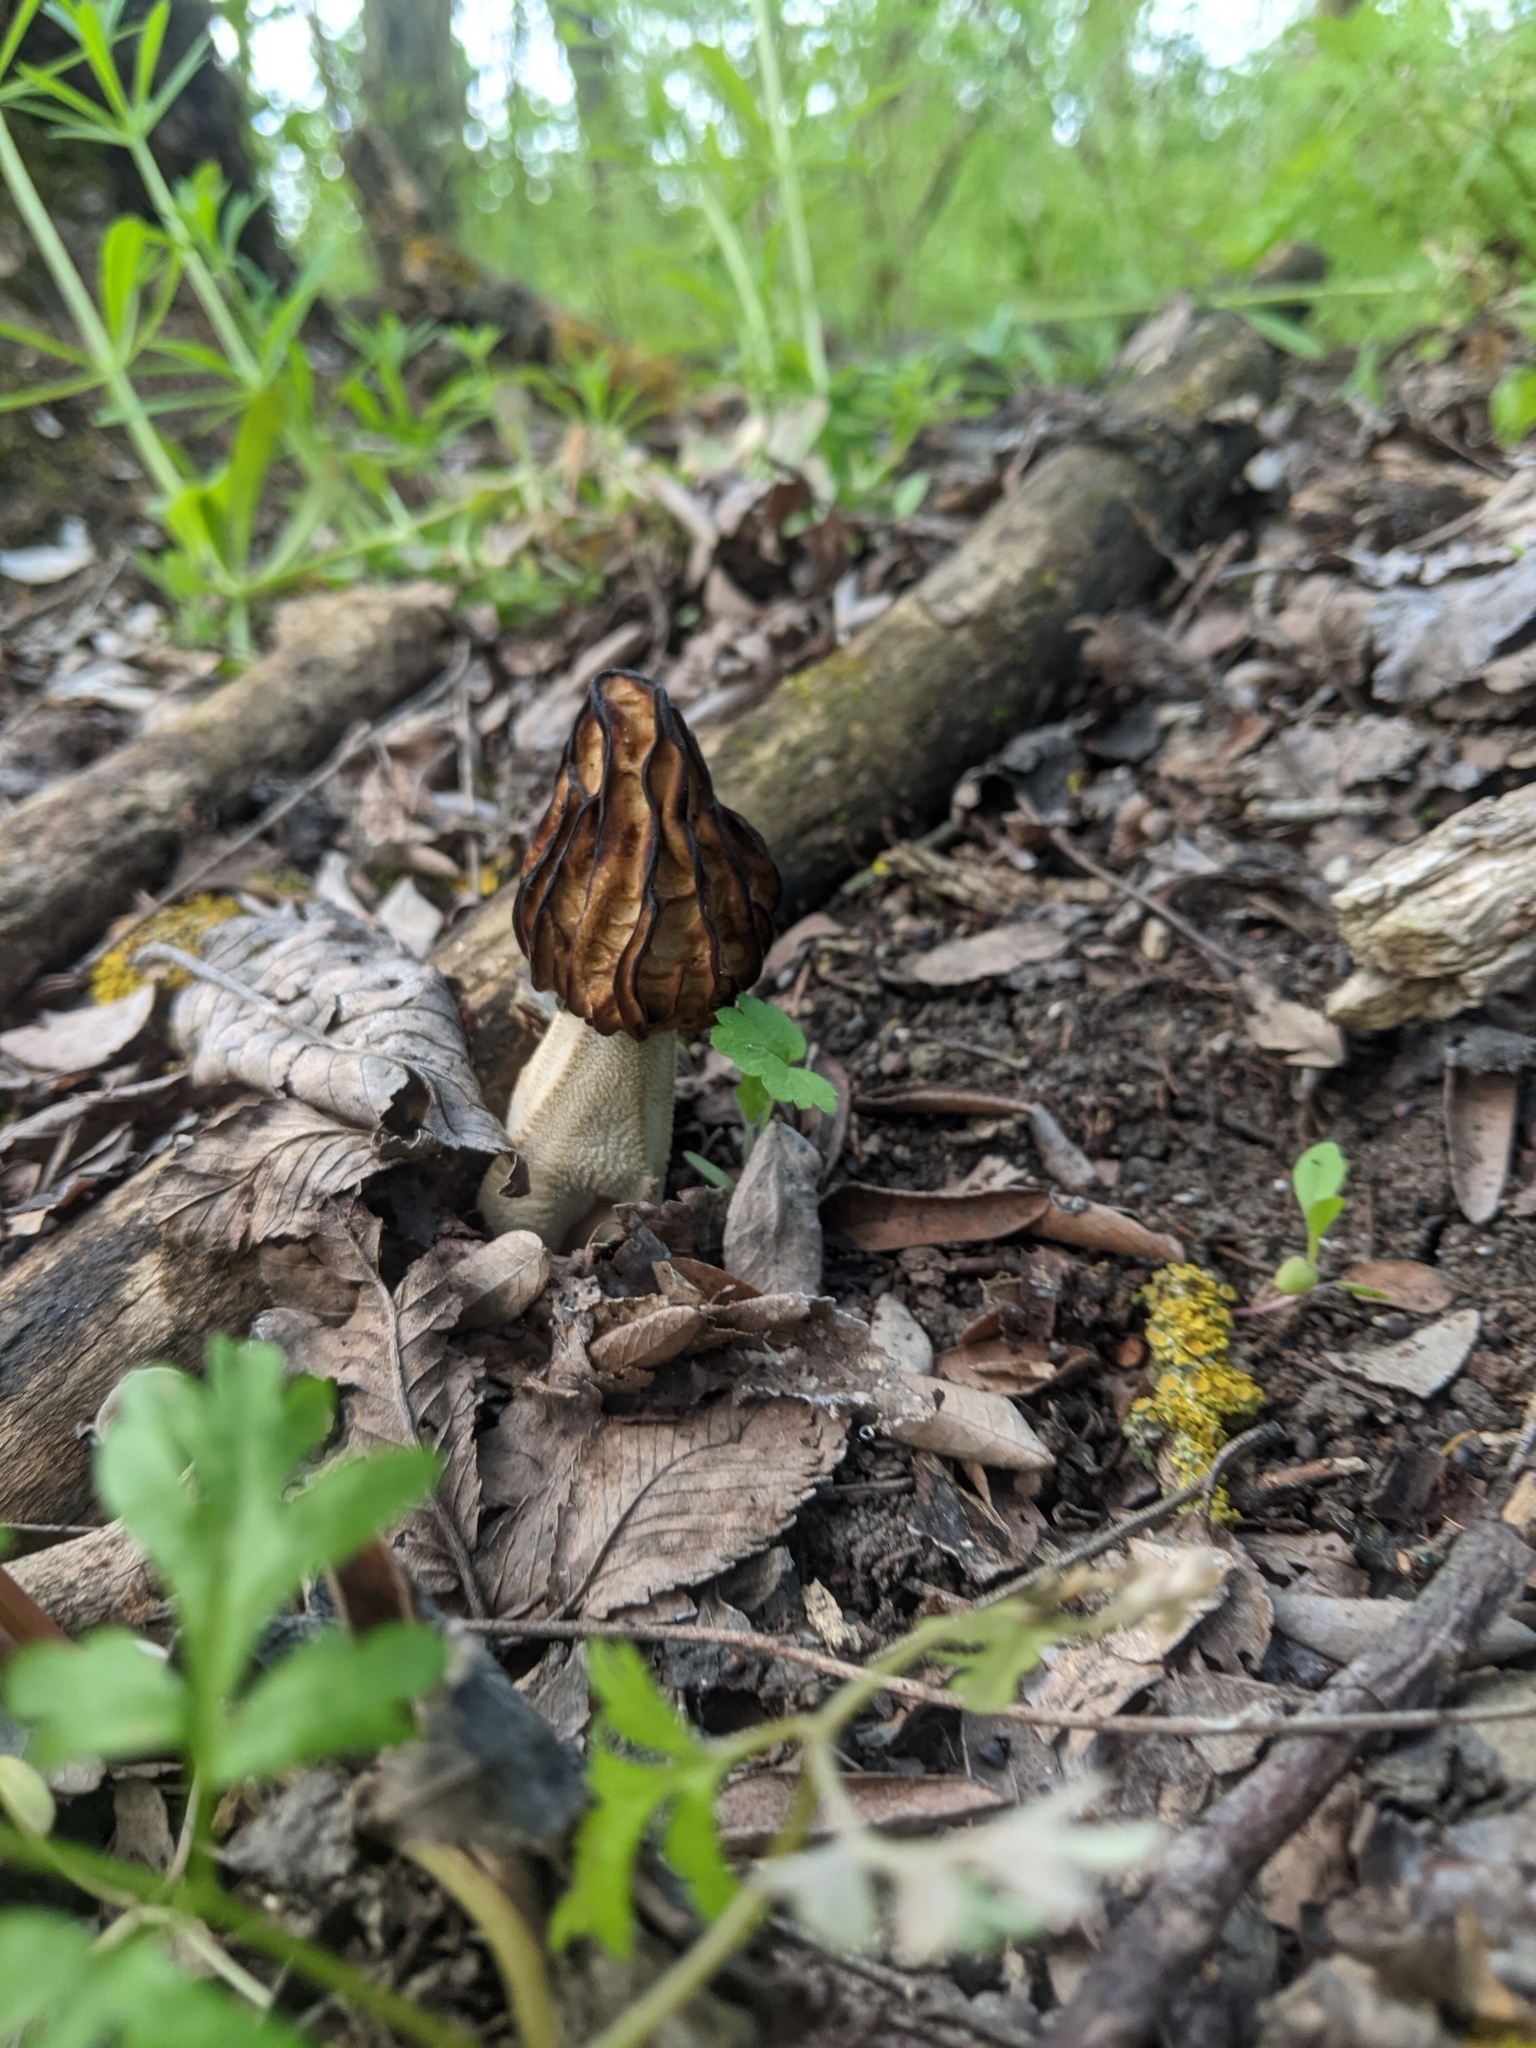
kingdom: Fungi
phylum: Ascomycota
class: Pezizomycetes
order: Pezizales
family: Morchellaceae
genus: Morchella
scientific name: Morchella semilibera
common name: Semifree morel
